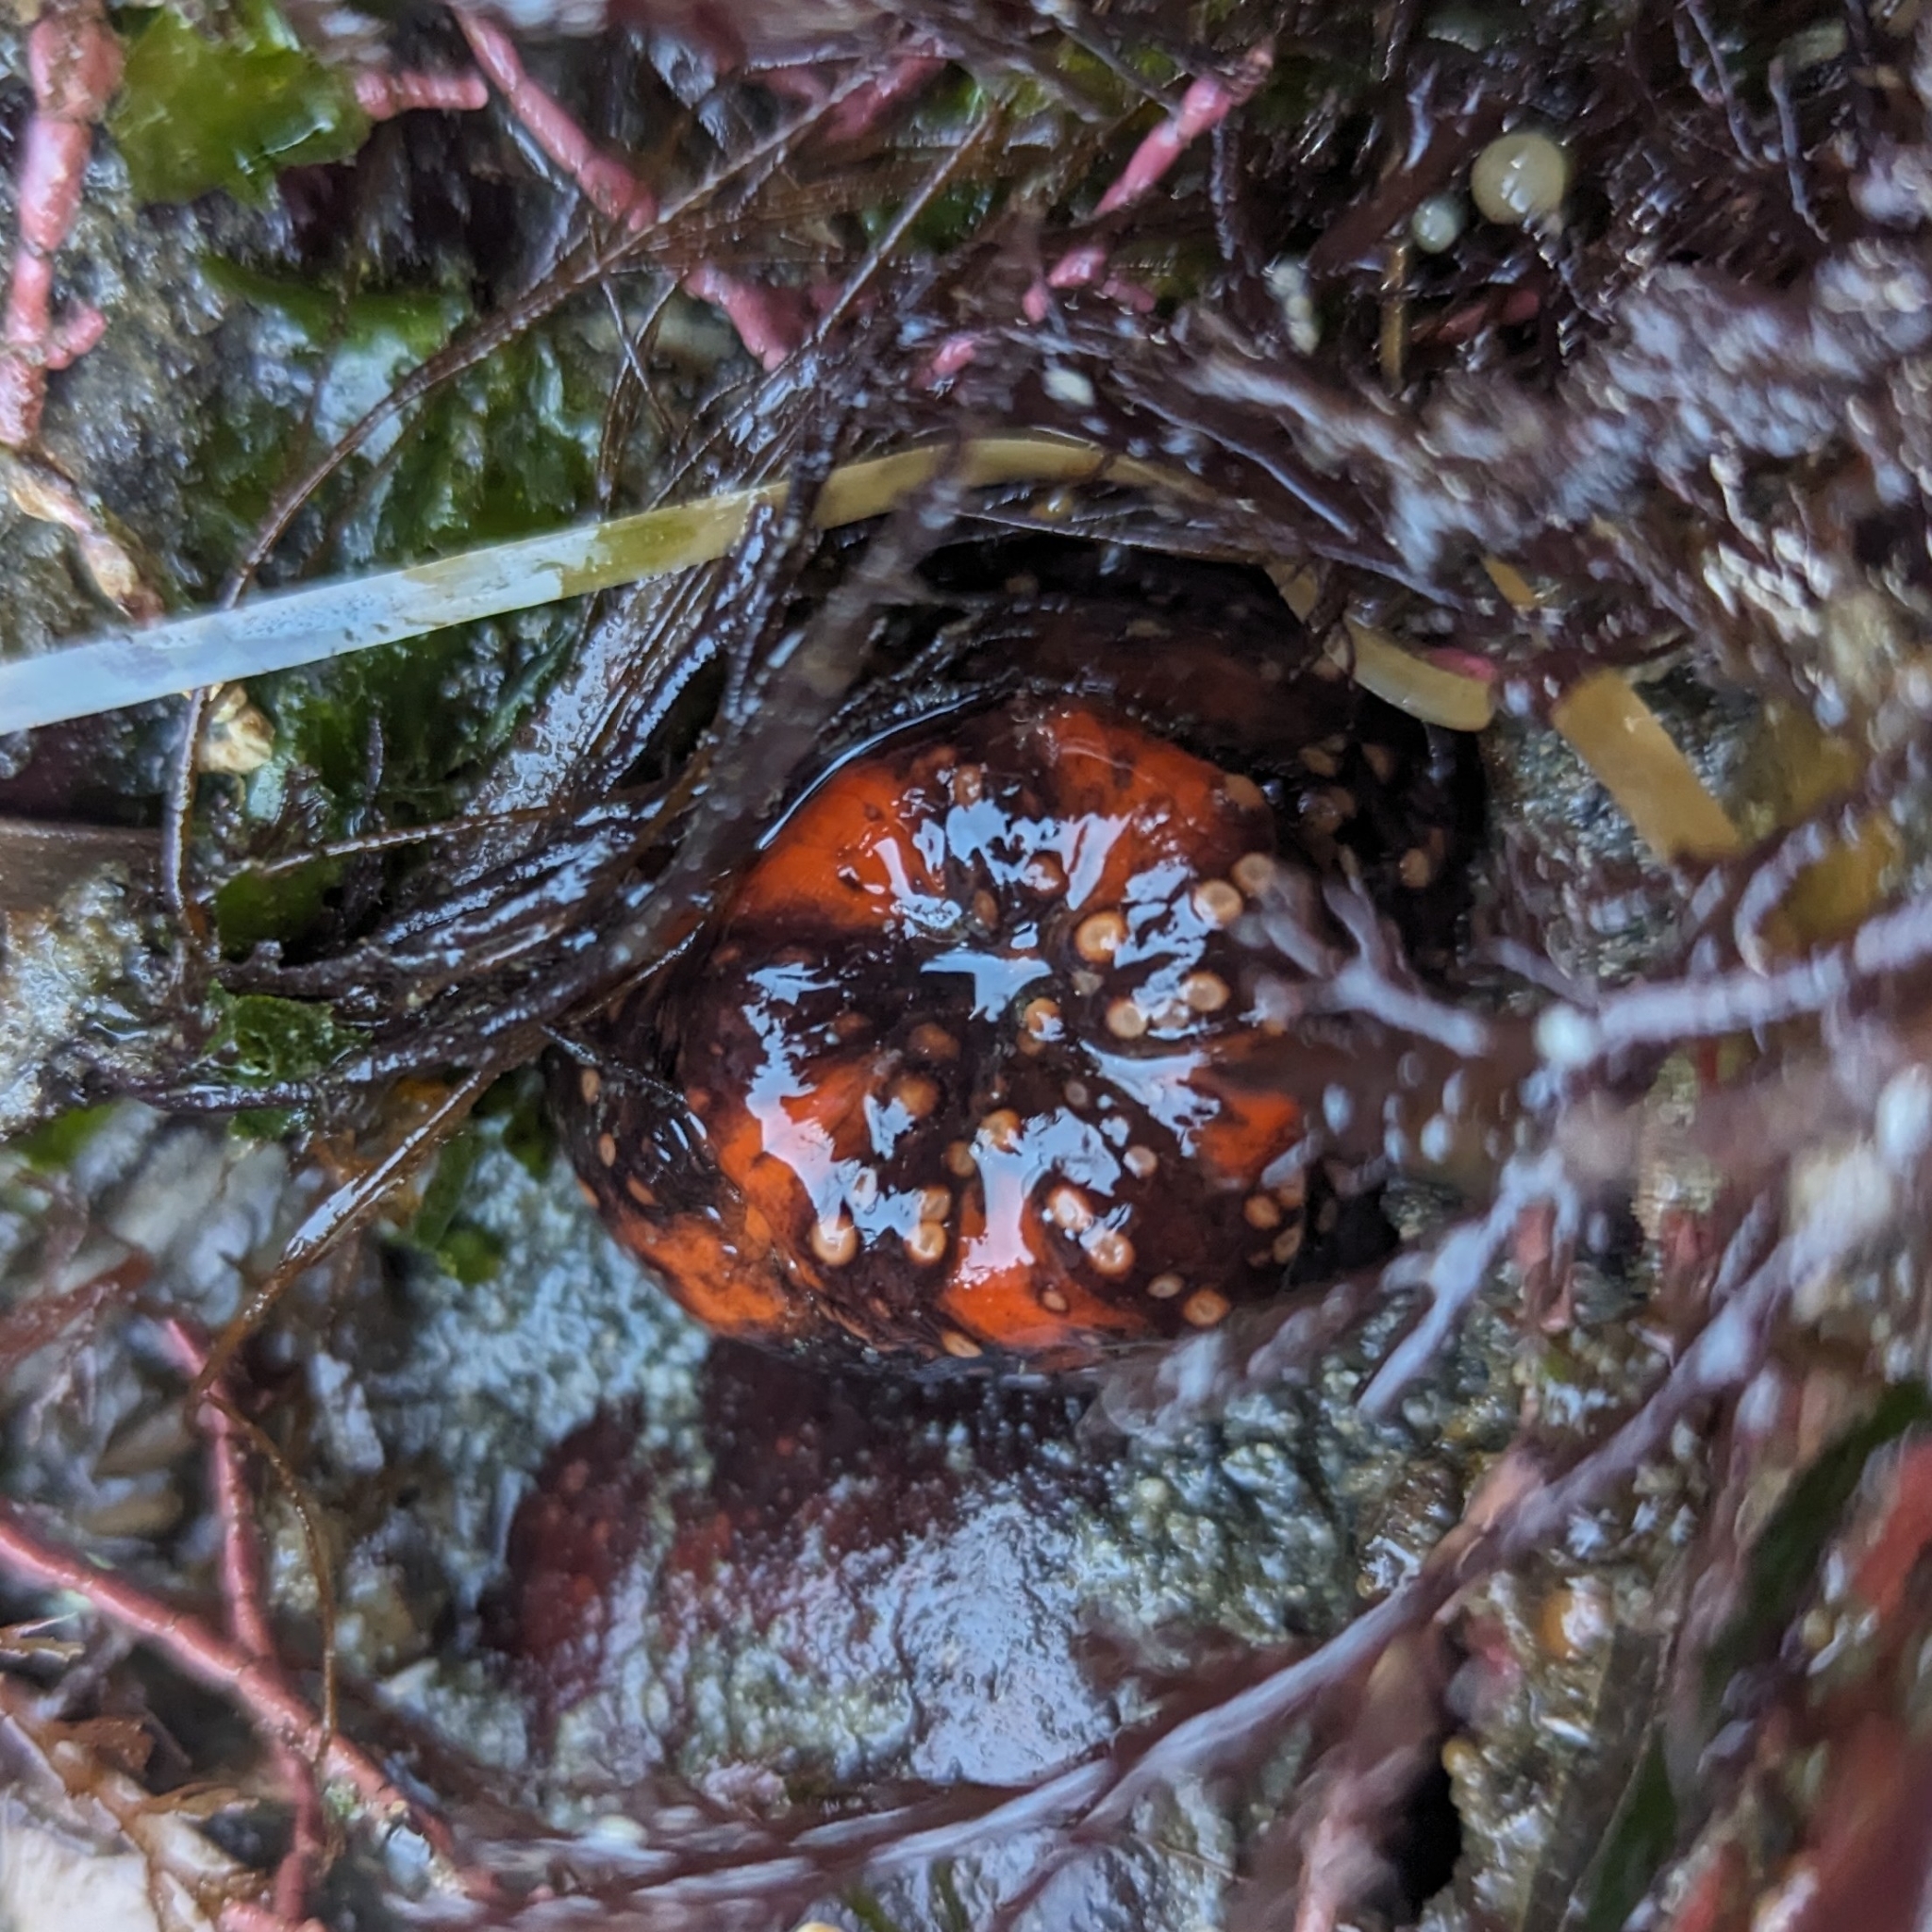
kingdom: Animalia
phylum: Echinodermata
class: Holothuroidea
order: Dendrochirotida
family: Cucumariidae
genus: Cucumaria
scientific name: Cucumaria miniata
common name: Orange sea cucumber
